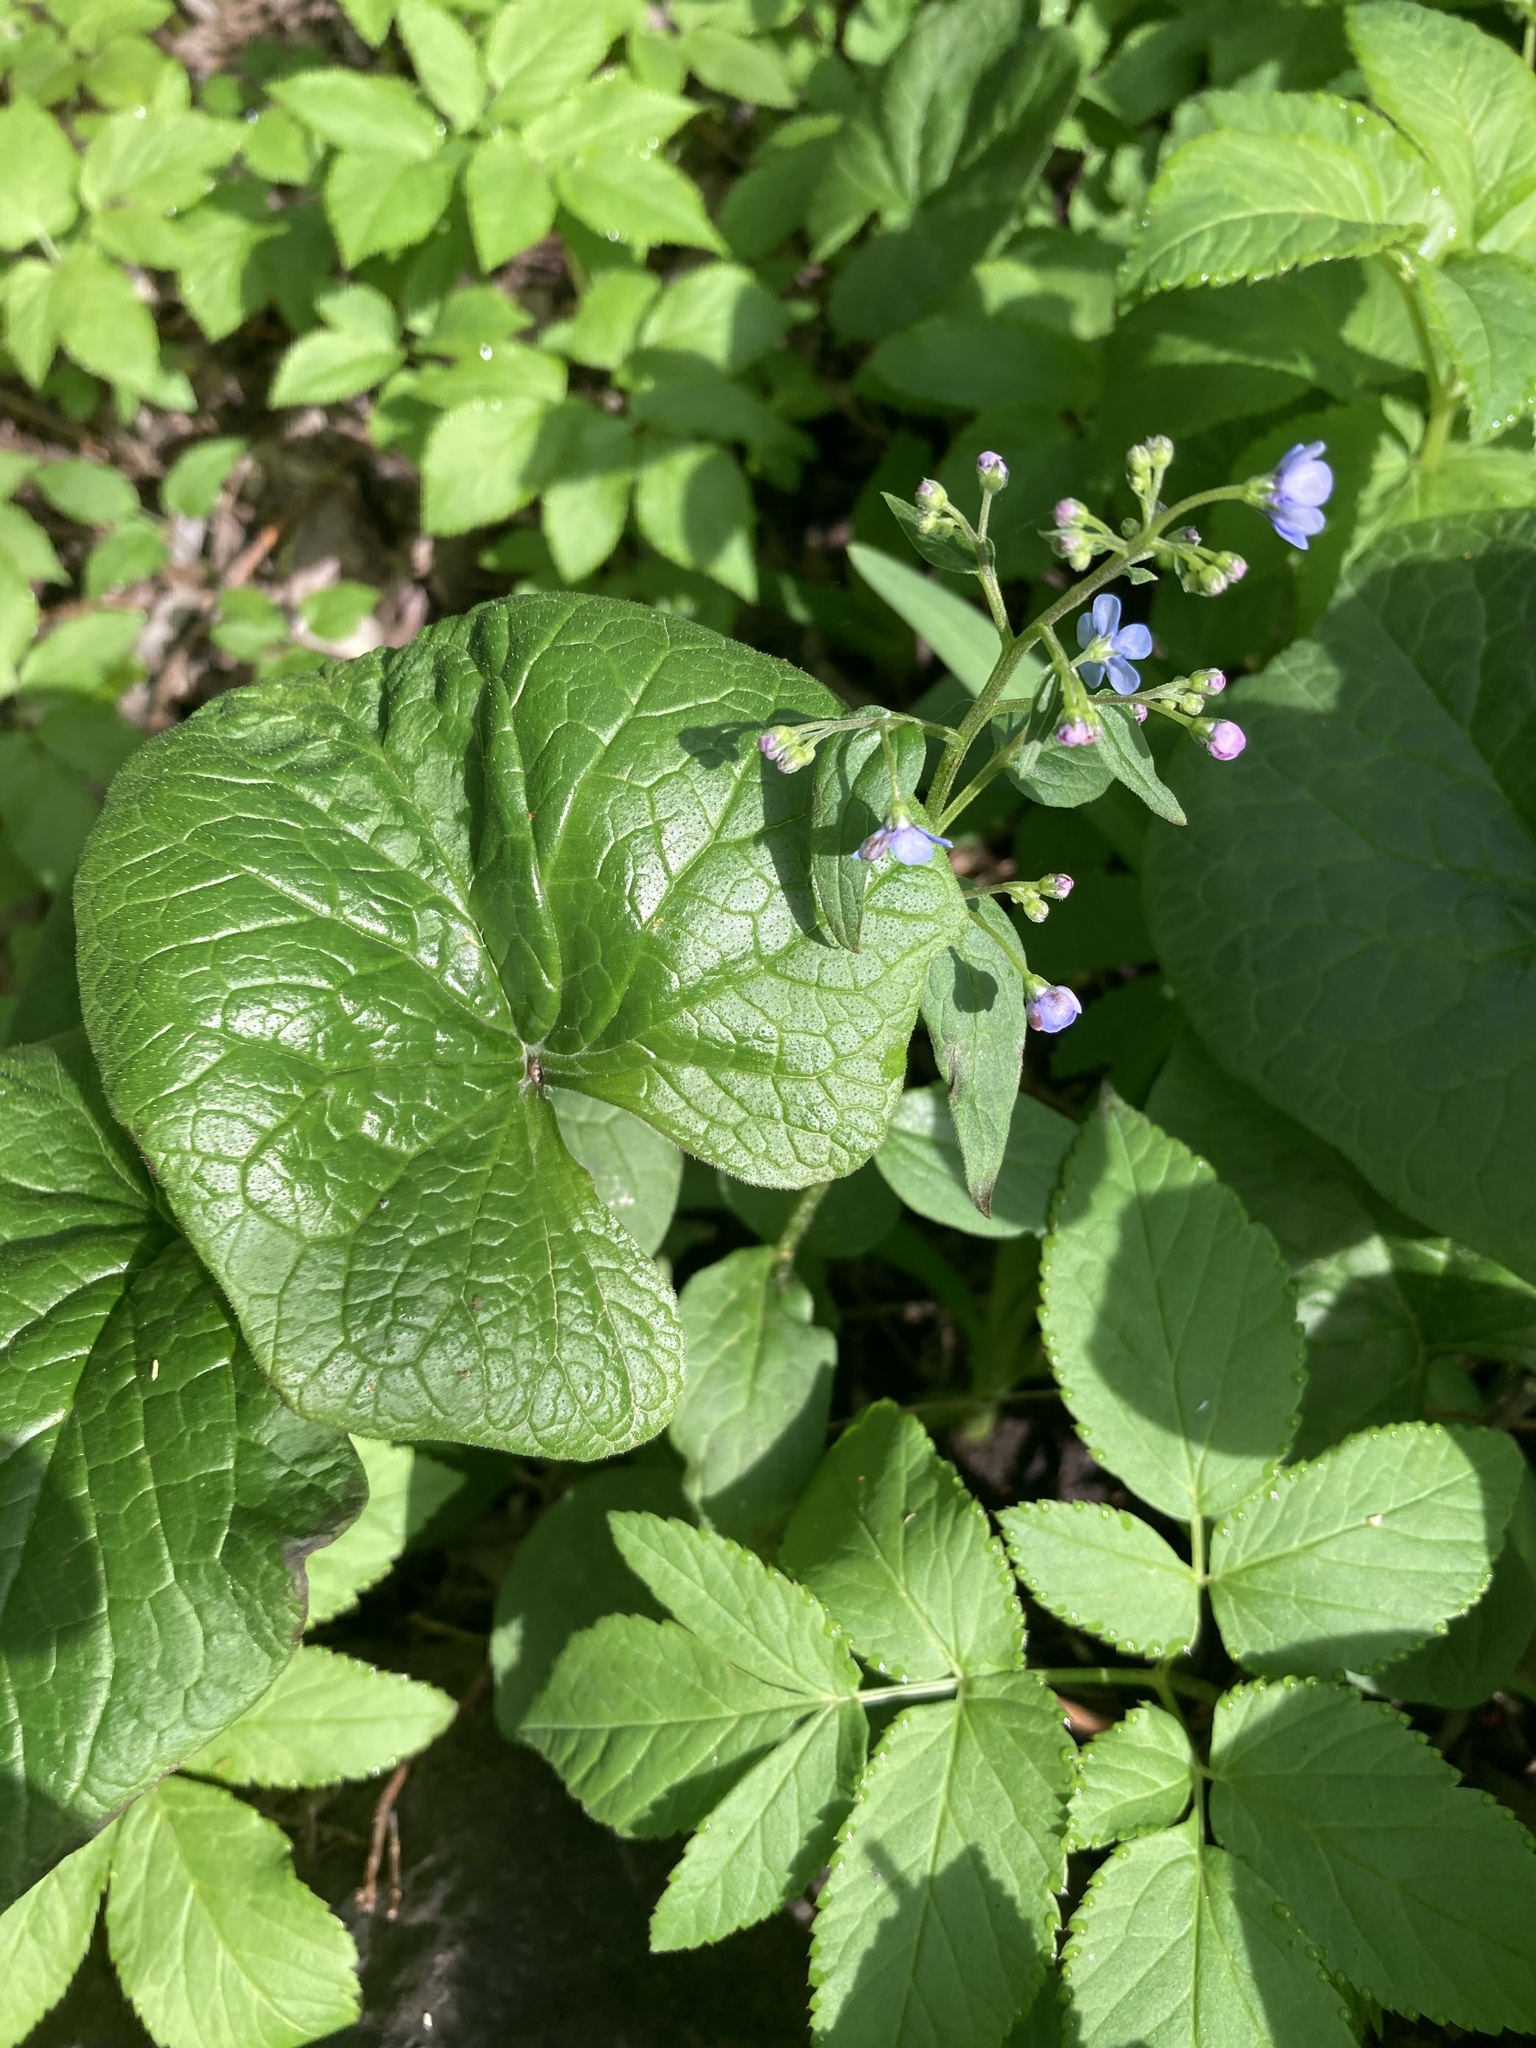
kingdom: Plantae
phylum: Tracheophyta
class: Magnoliopsida
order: Boraginales
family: Boraginaceae
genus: Brunnera
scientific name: Brunnera sibirica
